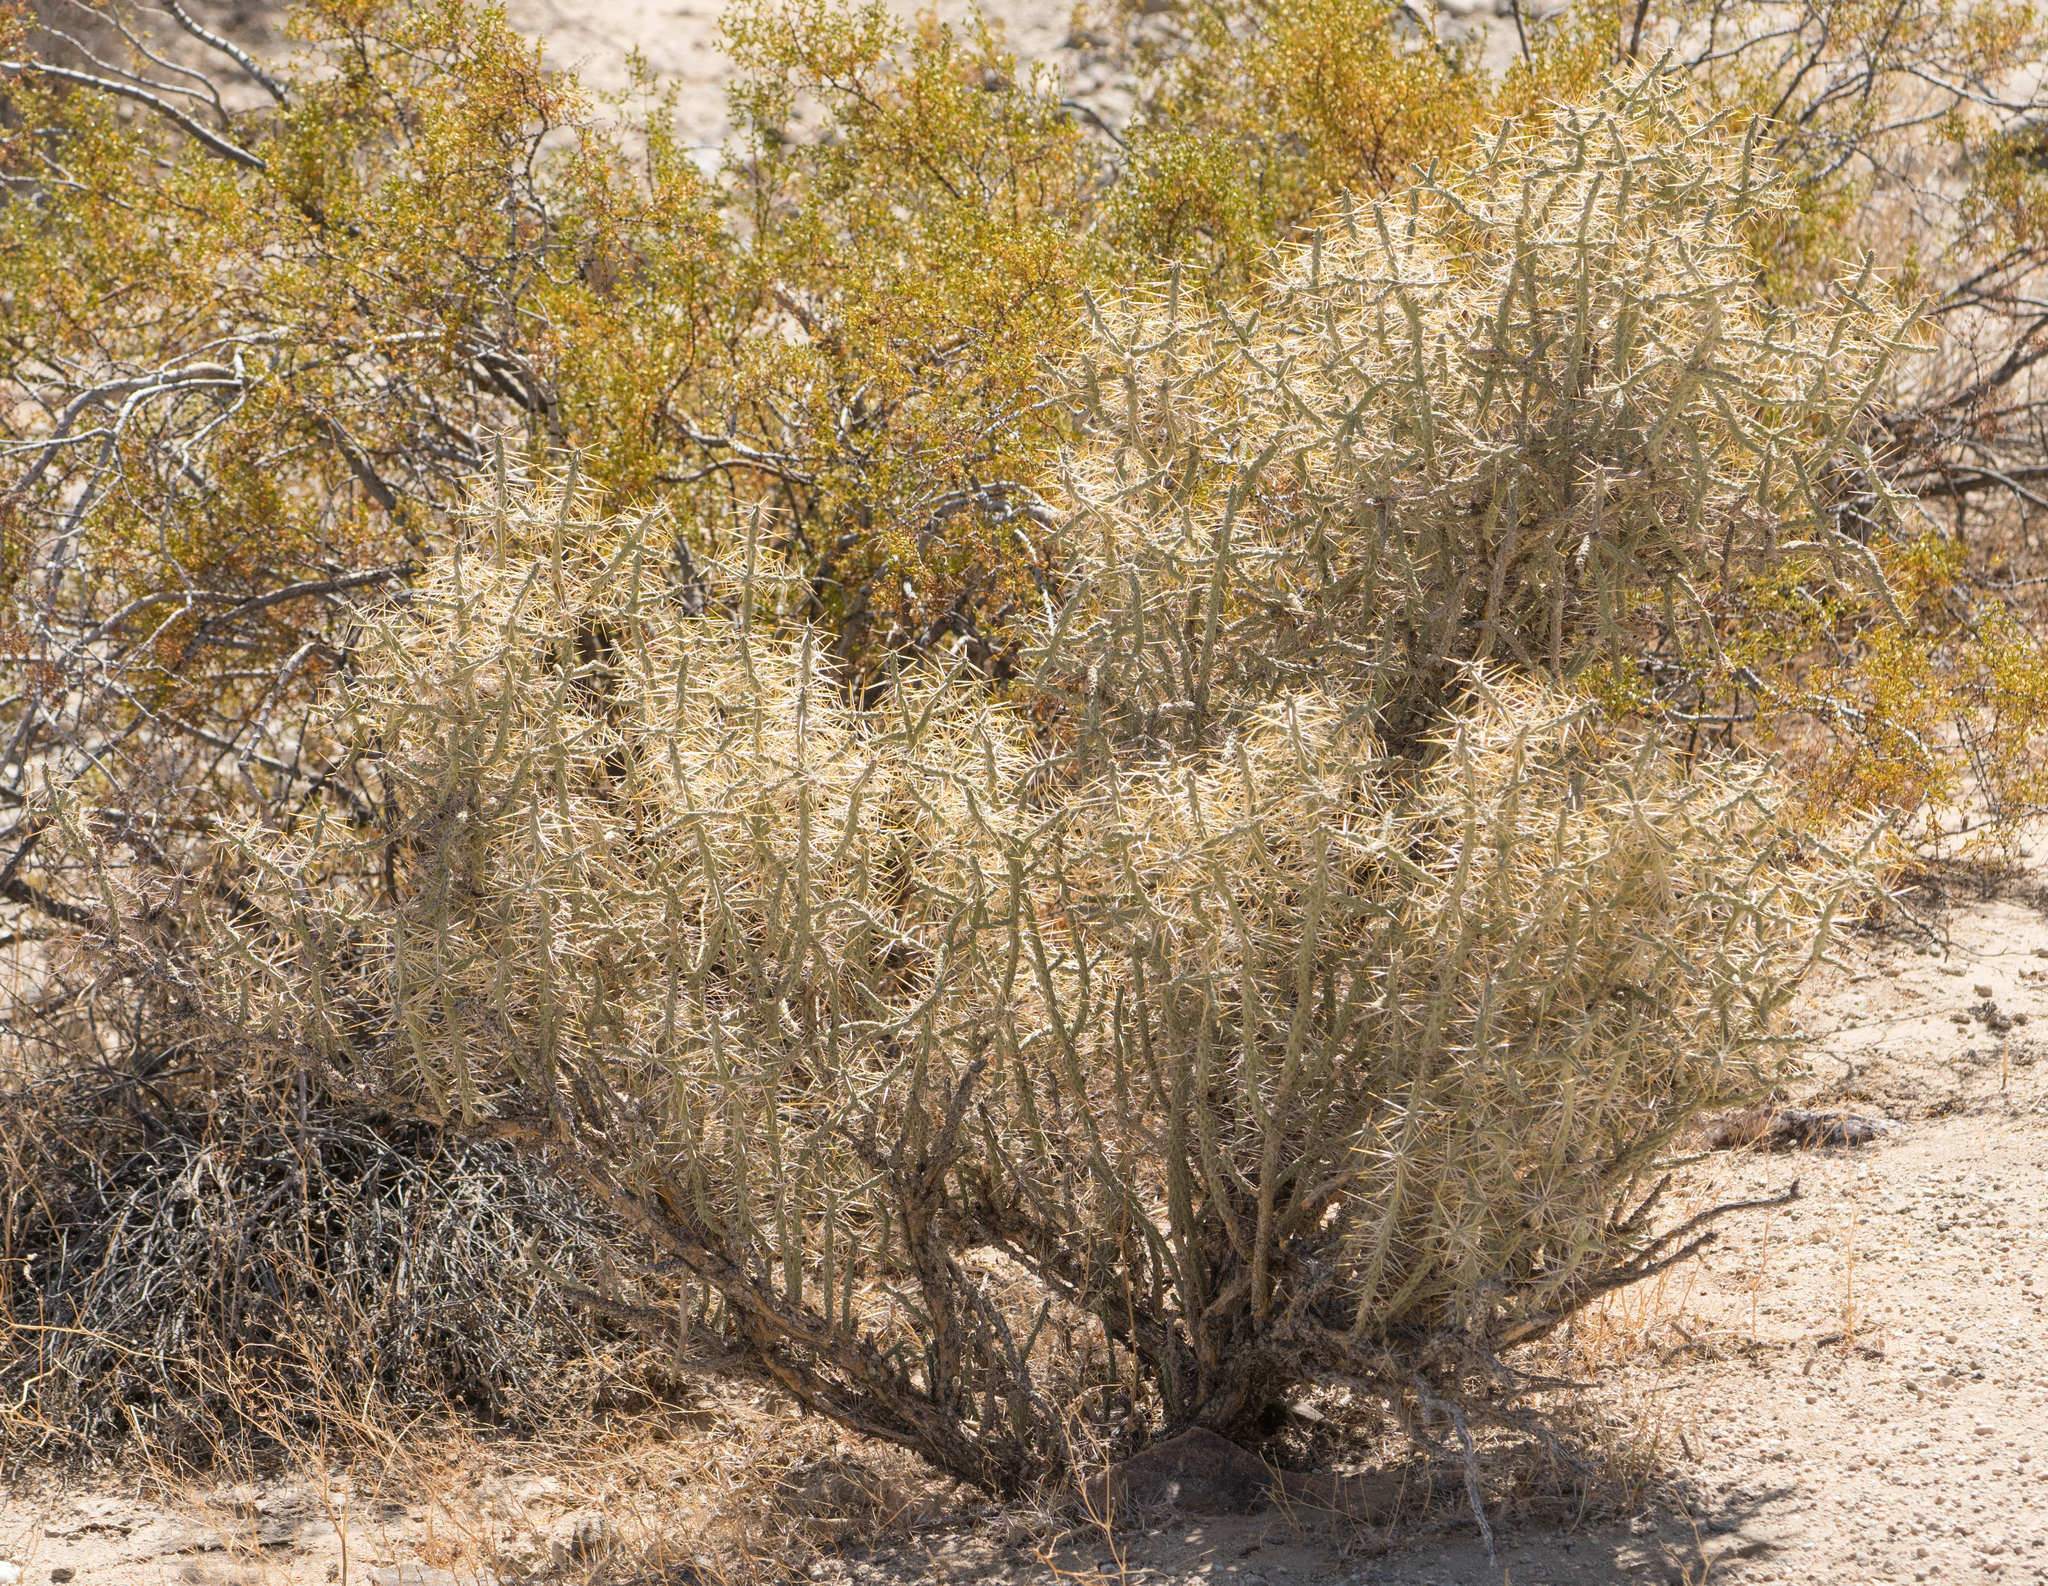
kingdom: Plantae
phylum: Tracheophyta
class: Magnoliopsida
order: Caryophyllales
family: Cactaceae
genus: Cylindropuntia
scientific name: Cylindropuntia ramosissima
